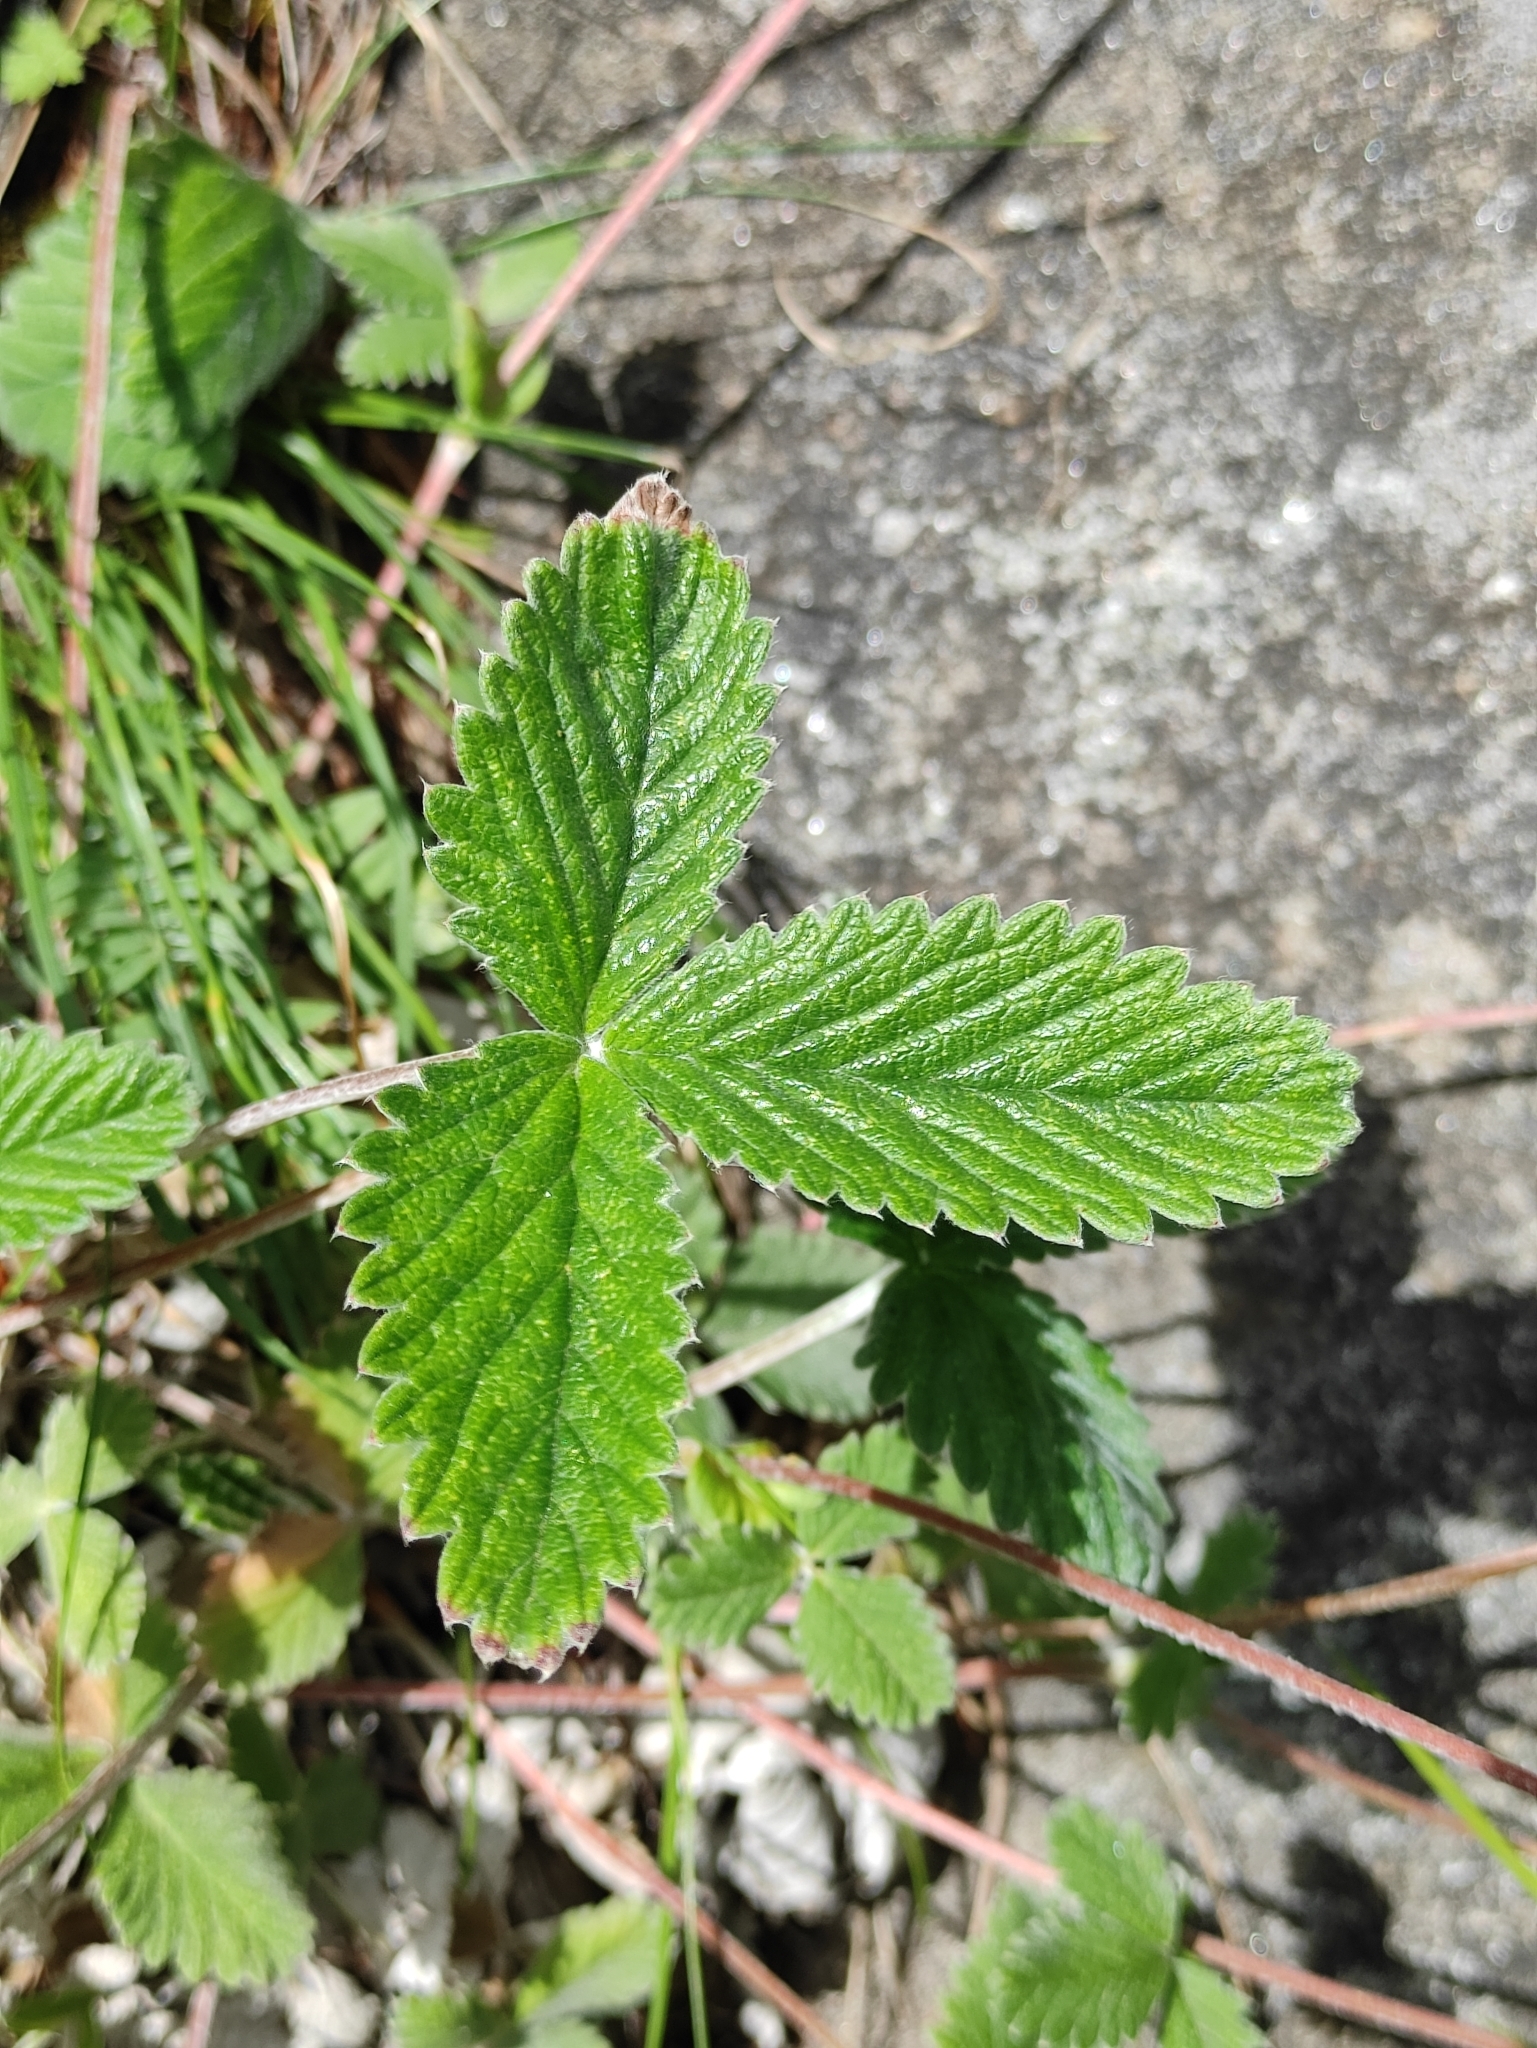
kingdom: Plantae
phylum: Tracheophyta
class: Magnoliopsida
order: Rosales
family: Rosaceae
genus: Potentilla
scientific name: Potentilla crebridens
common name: Congested cinquefoil
